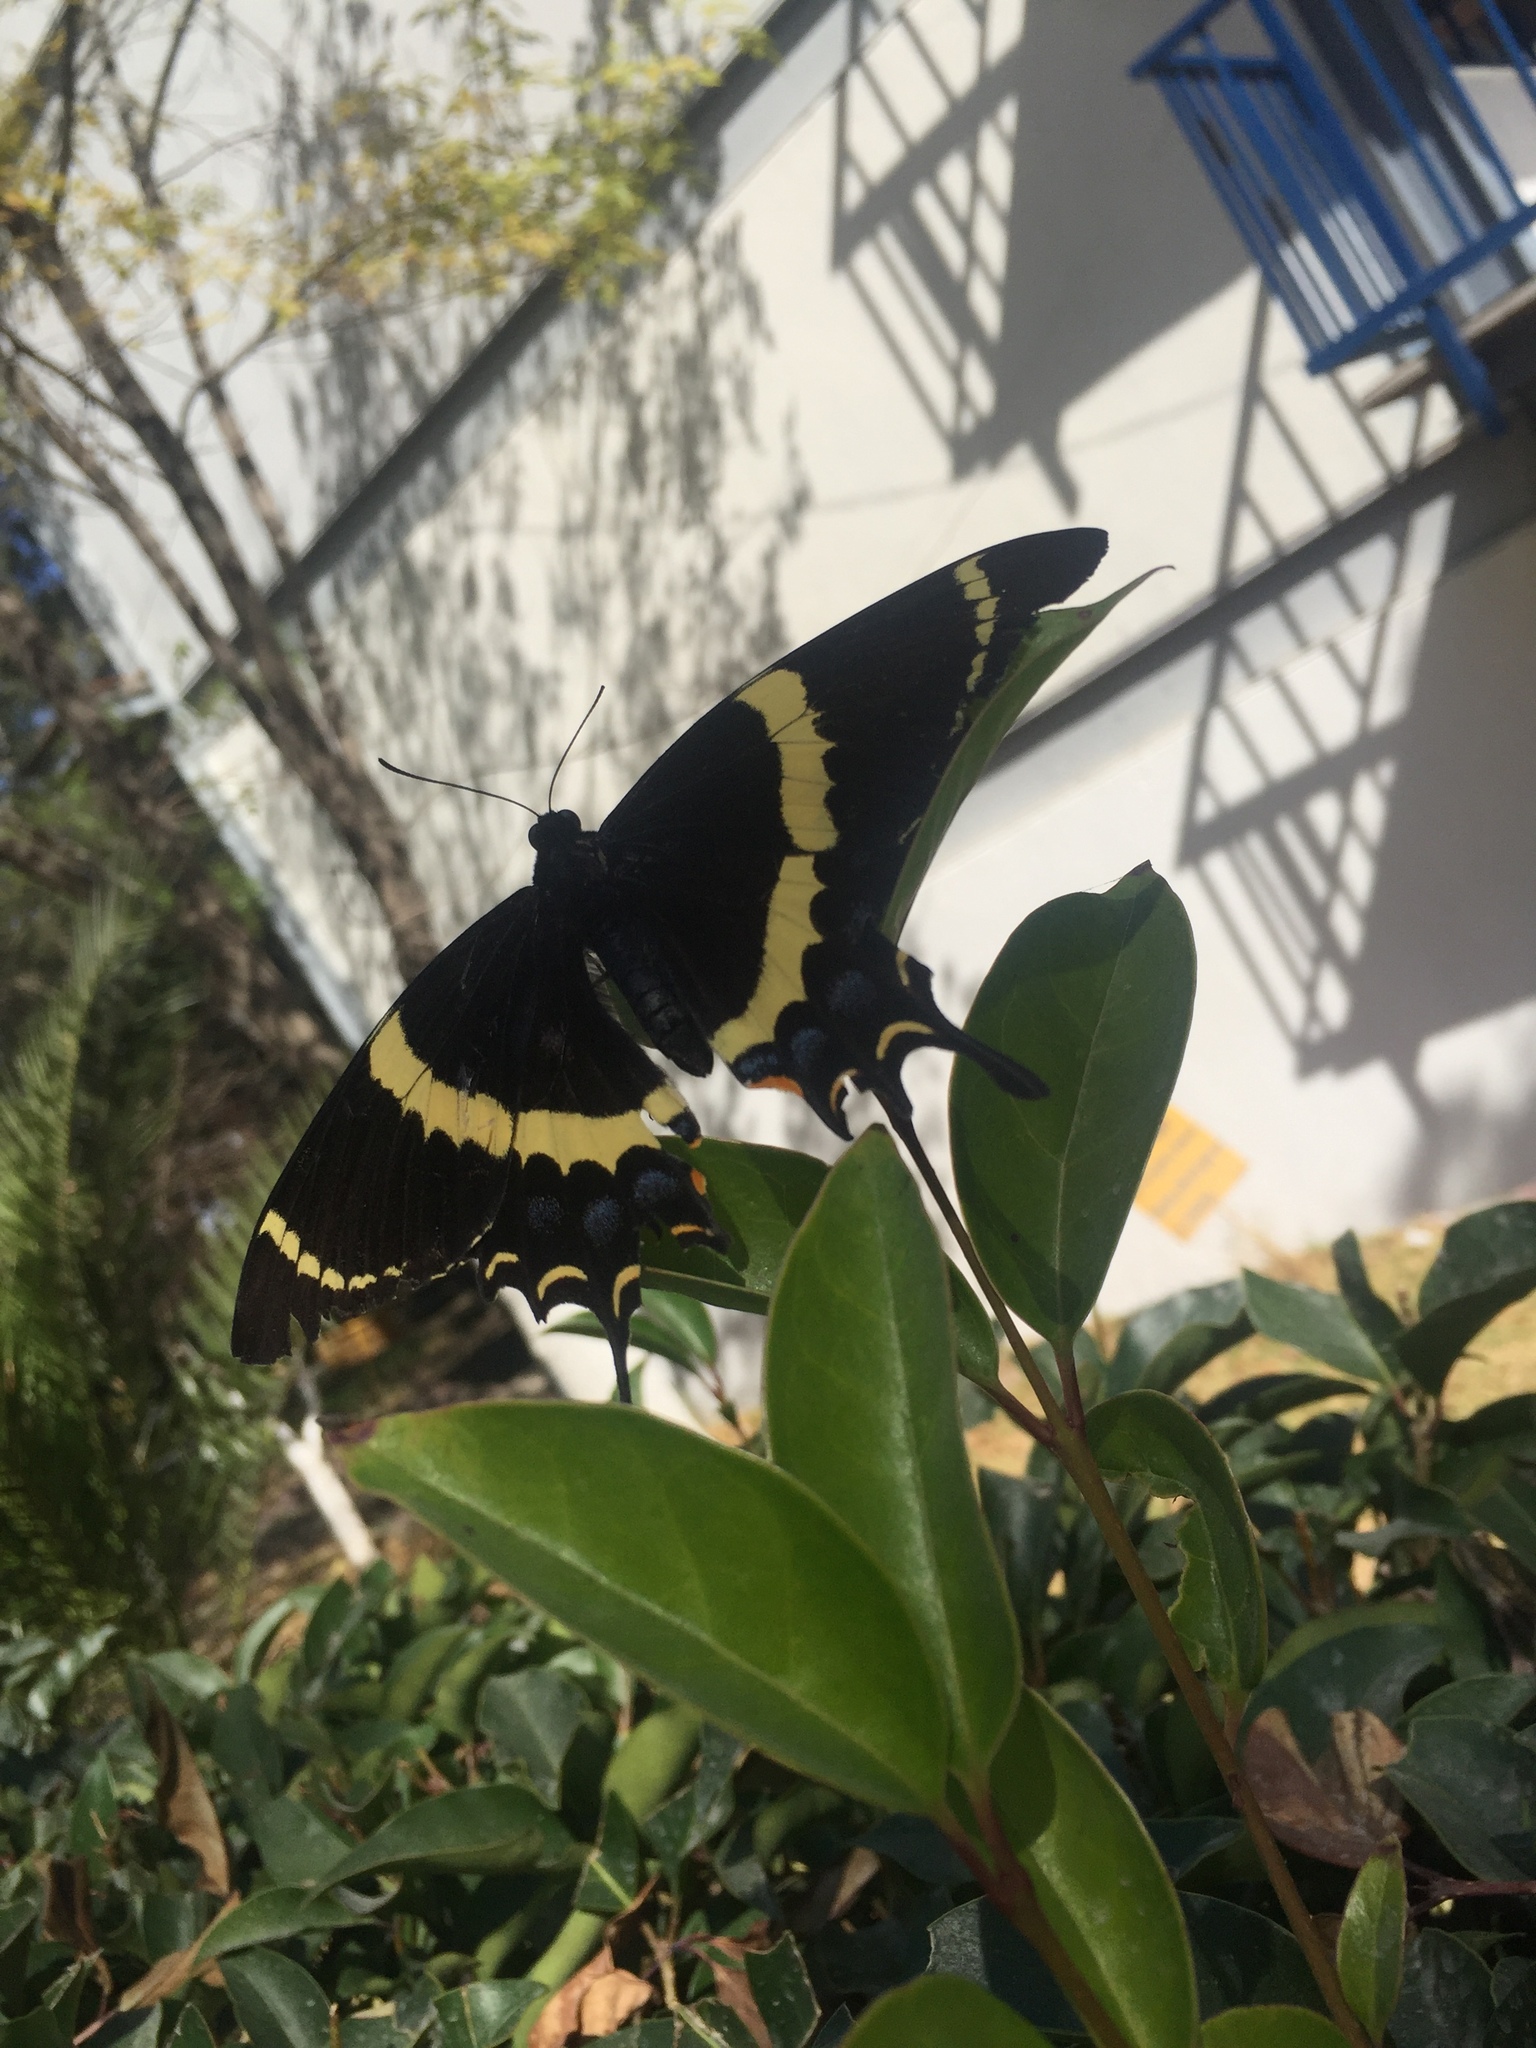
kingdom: Animalia
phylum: Arthropoda
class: Insecta
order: Lepidoptera
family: Papilionidae
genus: Papilio
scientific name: Papilio garamas
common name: Magnificent swallowtail
